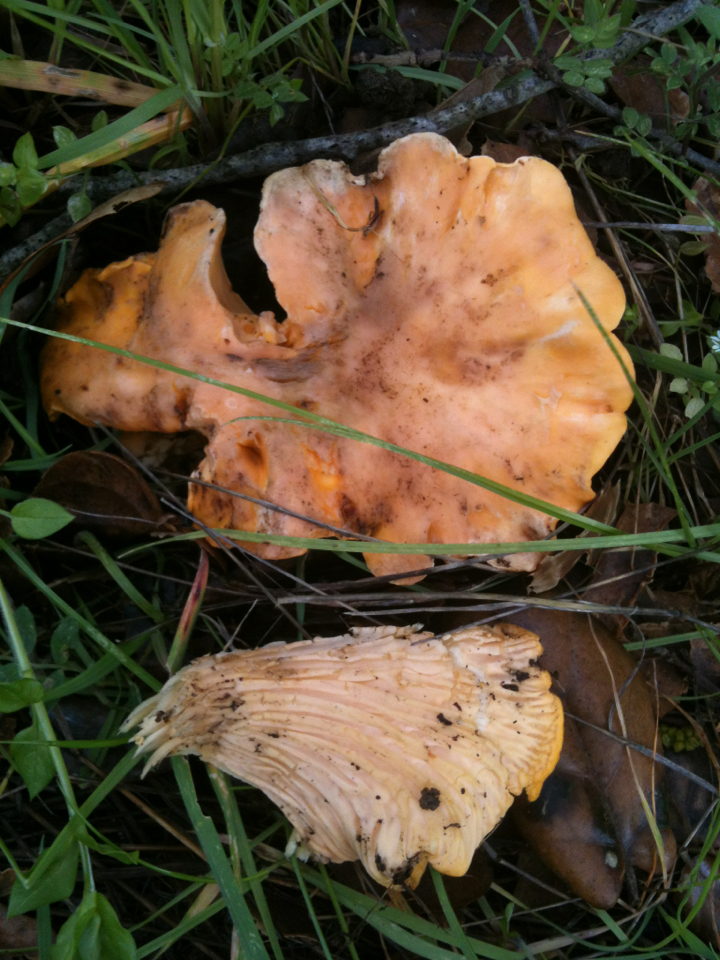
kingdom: Fungi
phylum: Basidiomycota
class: Agaricomycetes
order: Cantharellales
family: Hydnaceae
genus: Cantharellus
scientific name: Cantharellus californicus
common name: California golden chanterelle
